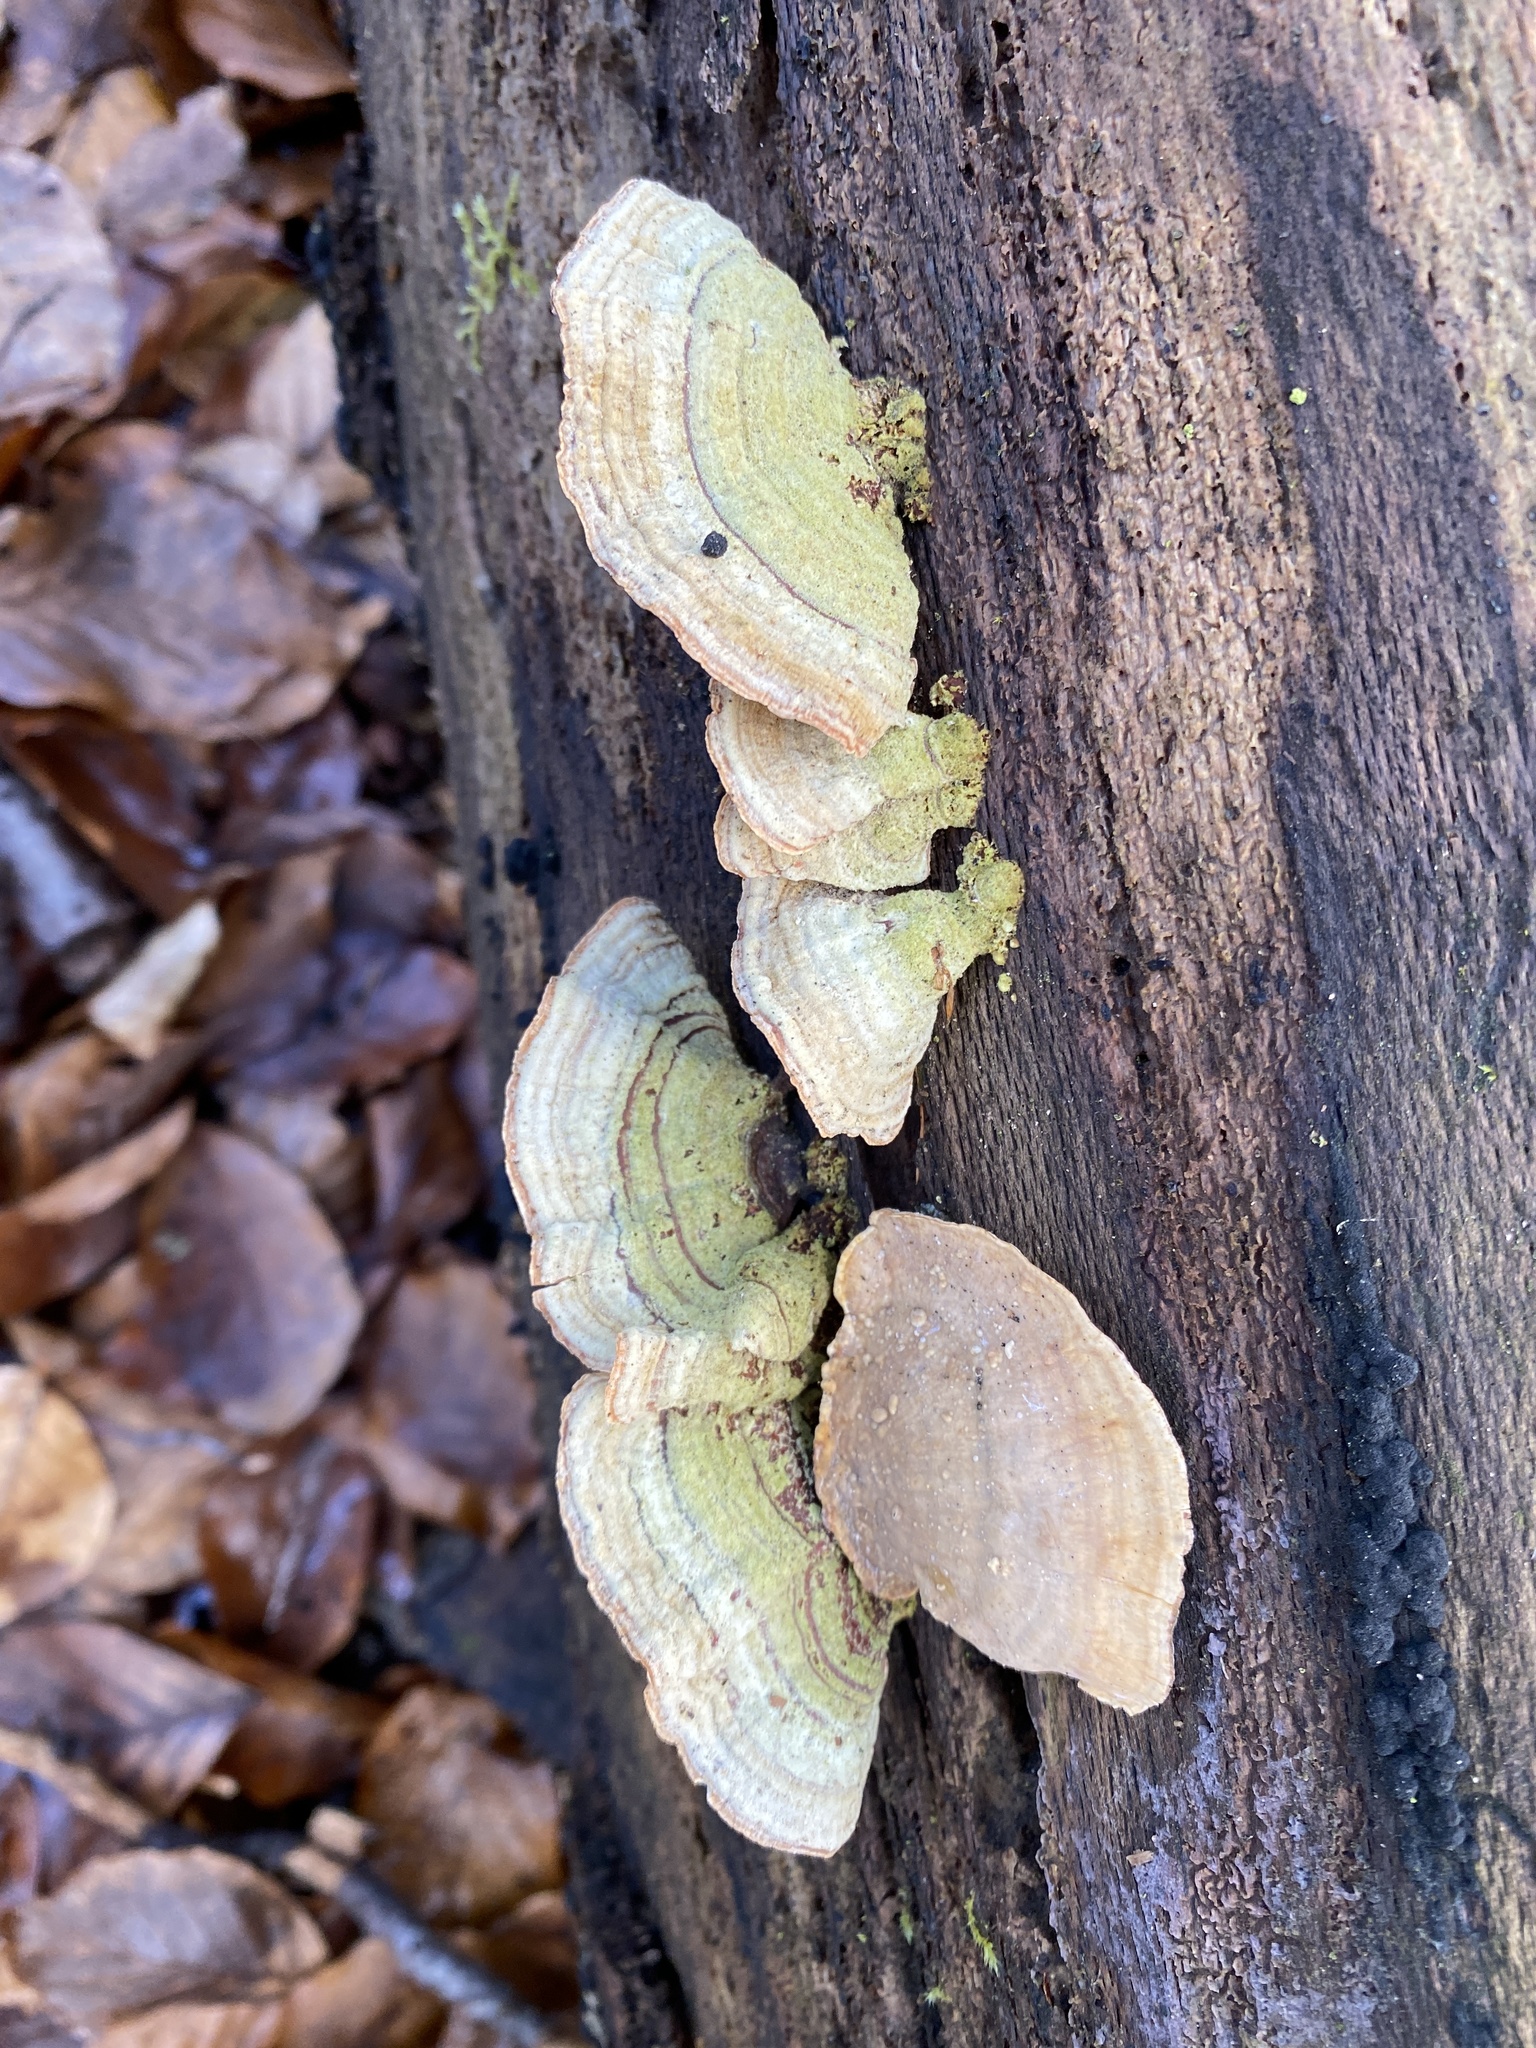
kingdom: Fungi
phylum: Basidiomycota
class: Agaricomycetes
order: Russulales
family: Stereaceae
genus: Stereum
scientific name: Stereum subtomentosum
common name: Yellowing curtain crust
